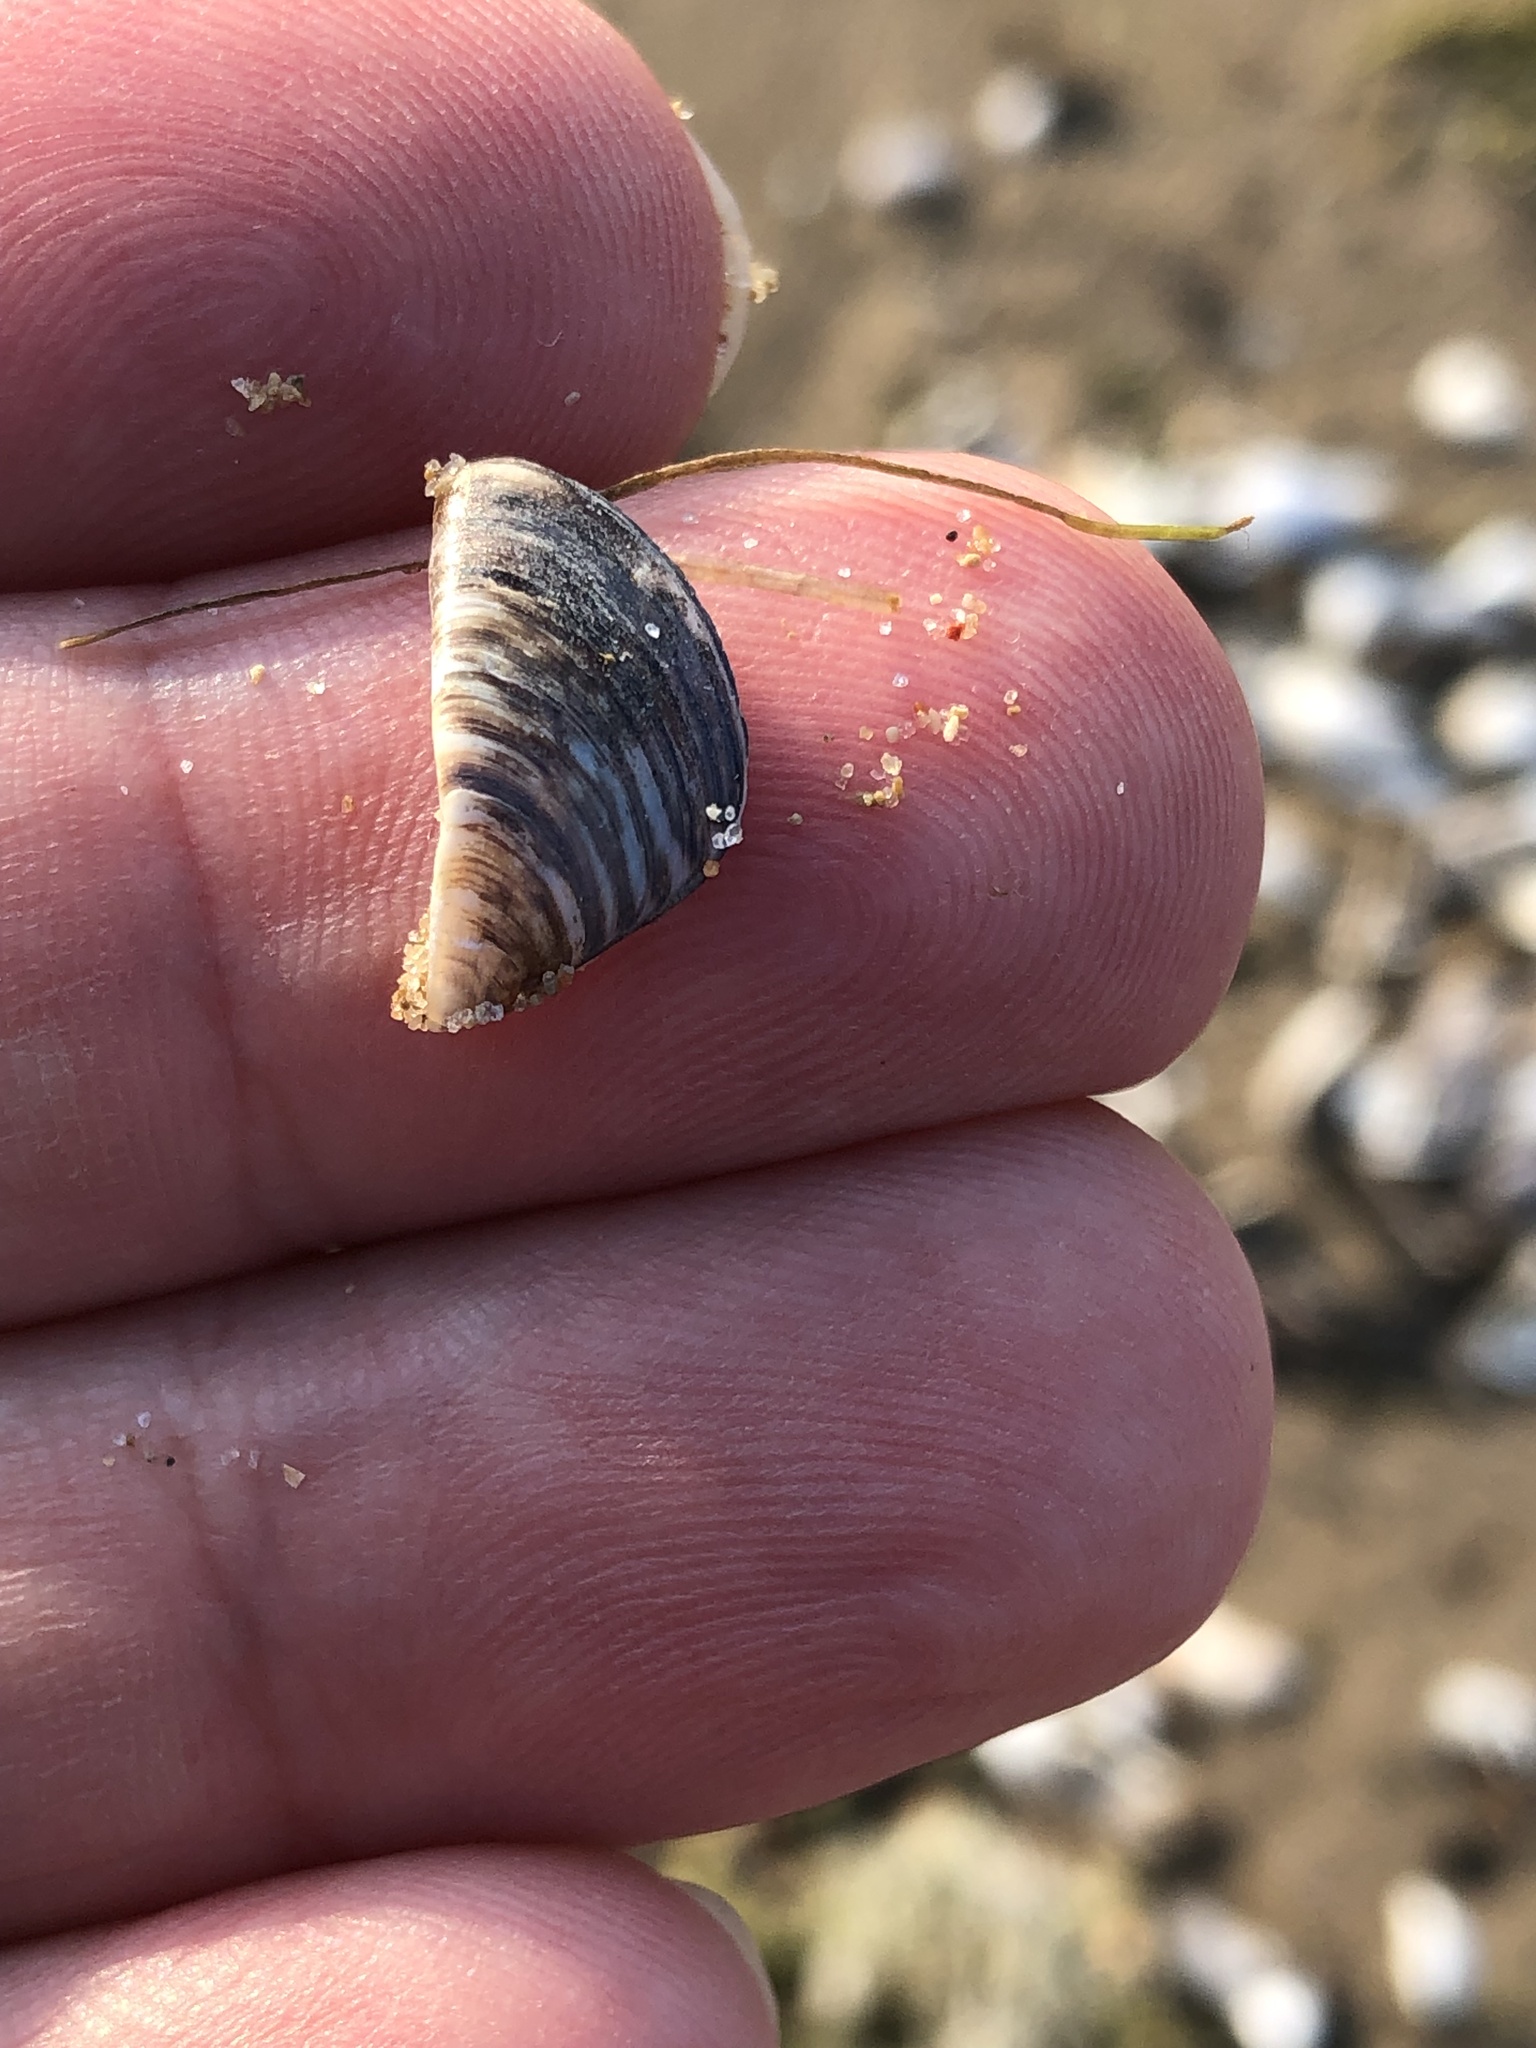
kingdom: Animalia
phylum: Mollusca
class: Bivalvia
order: Myida
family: Dreissenidae
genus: Dreissena
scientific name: Dreissena polymorpha
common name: Zebra mussel
